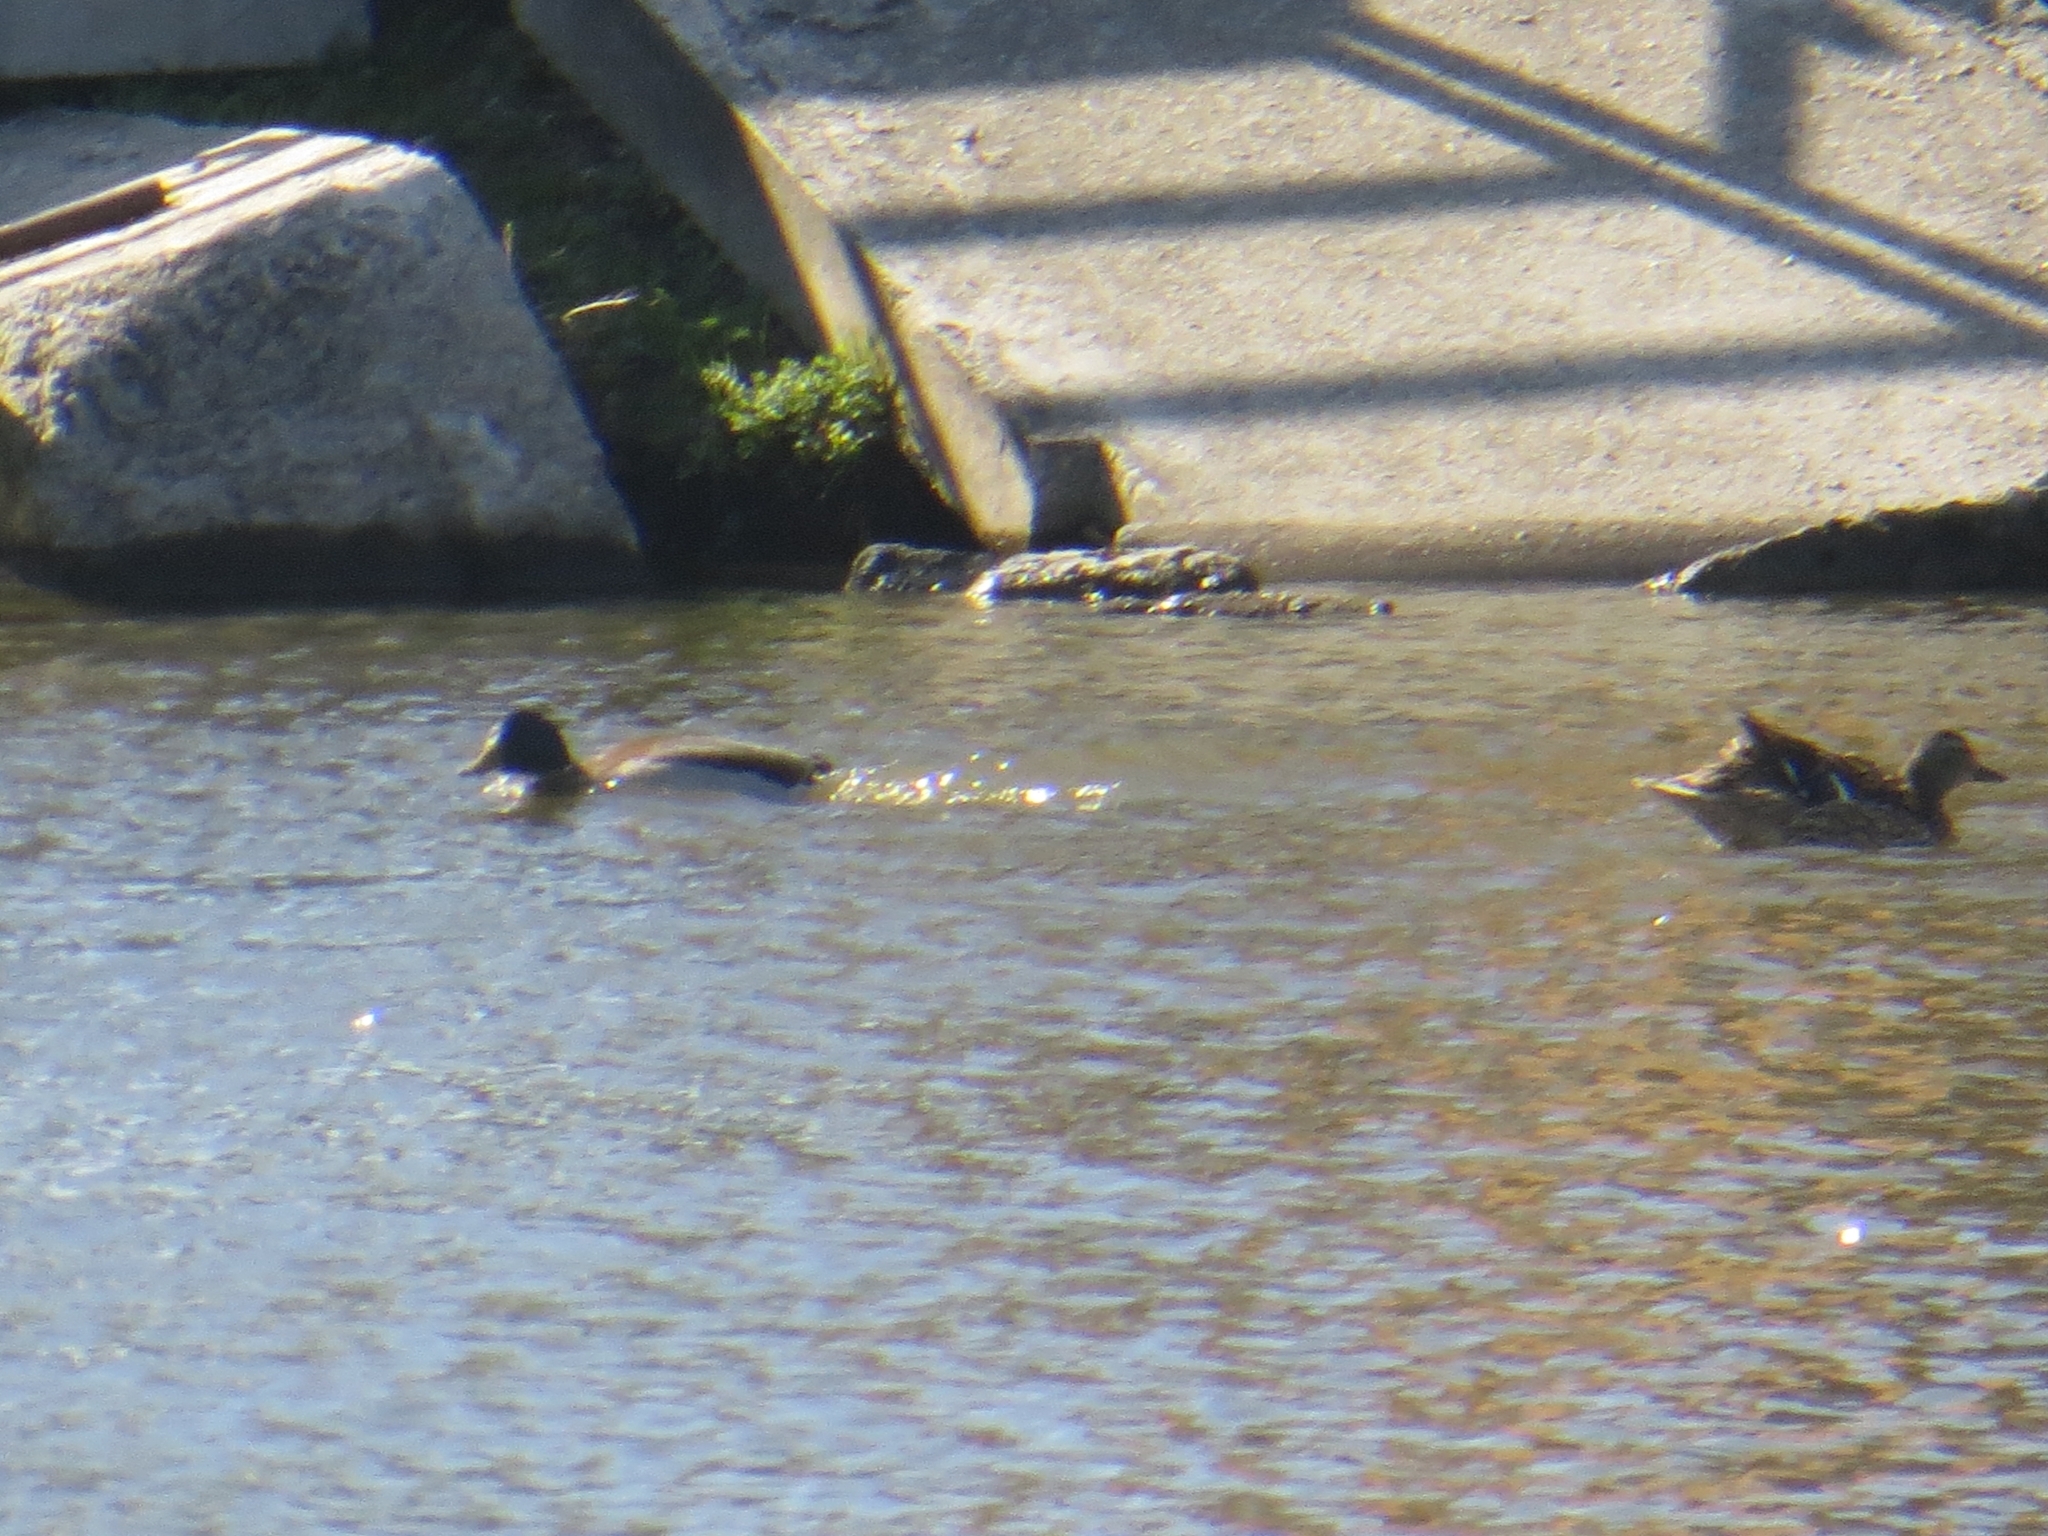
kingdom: Animalia
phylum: Chordata
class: Aves
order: Anseriformes
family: Anatidae
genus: Anas
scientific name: Anas platyrhynchos
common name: Mallard
